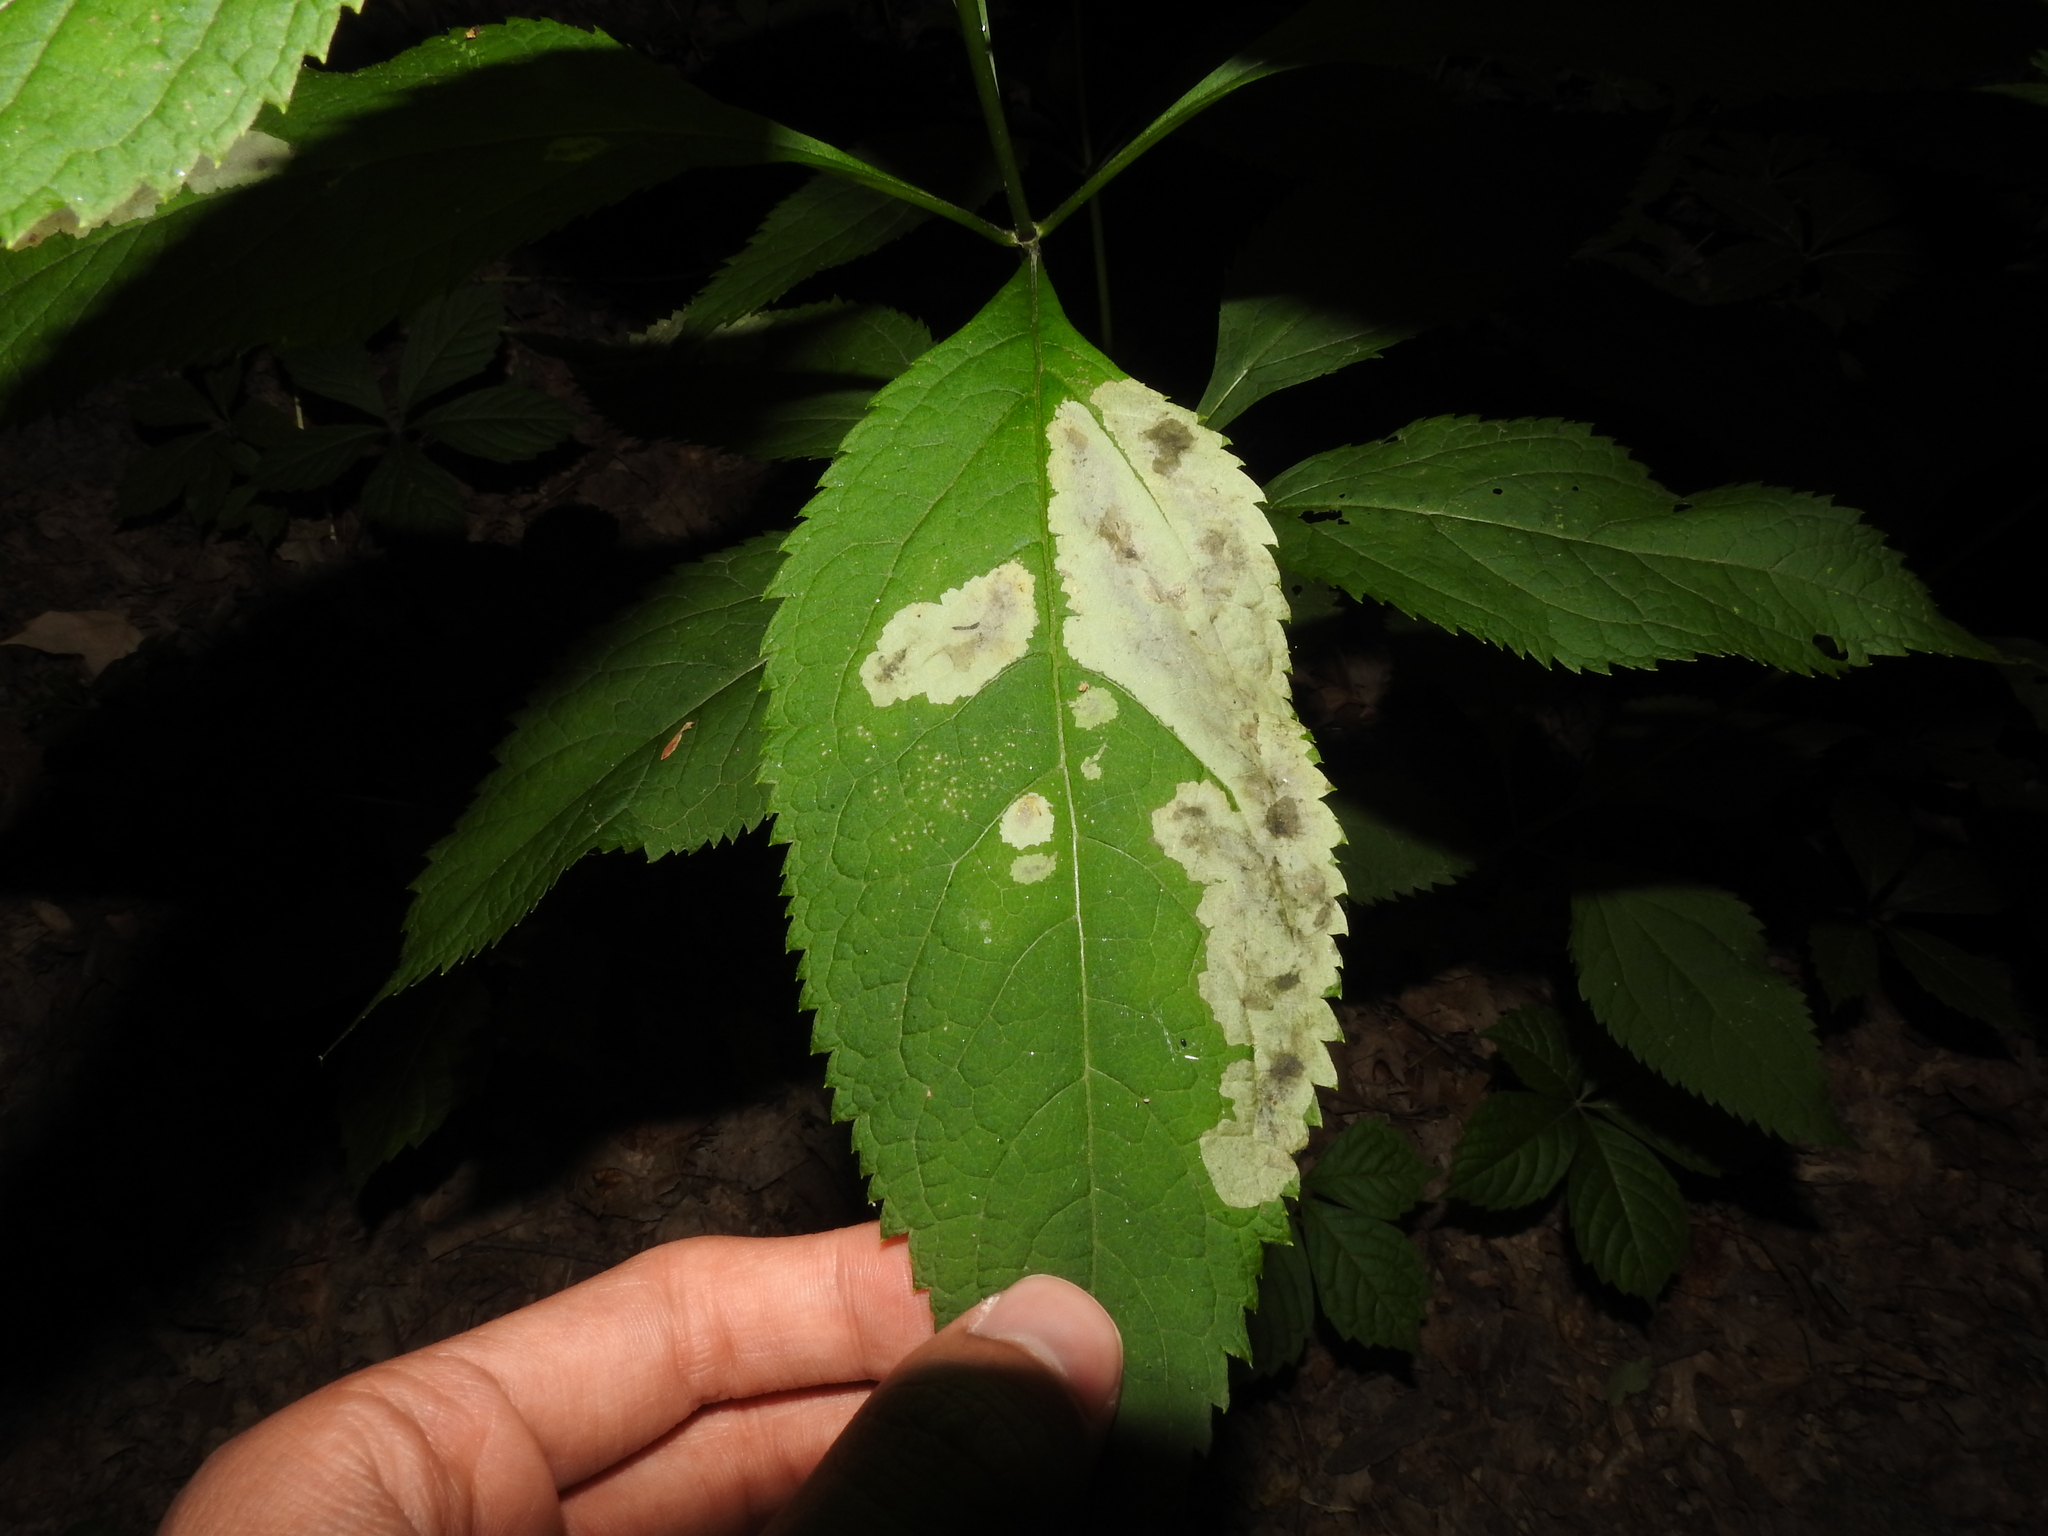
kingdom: Animalia
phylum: Arthropoda
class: Insecta
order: Diptera
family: Agromyzidae
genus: Calycomyza
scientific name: Calycomyza flavinotum
